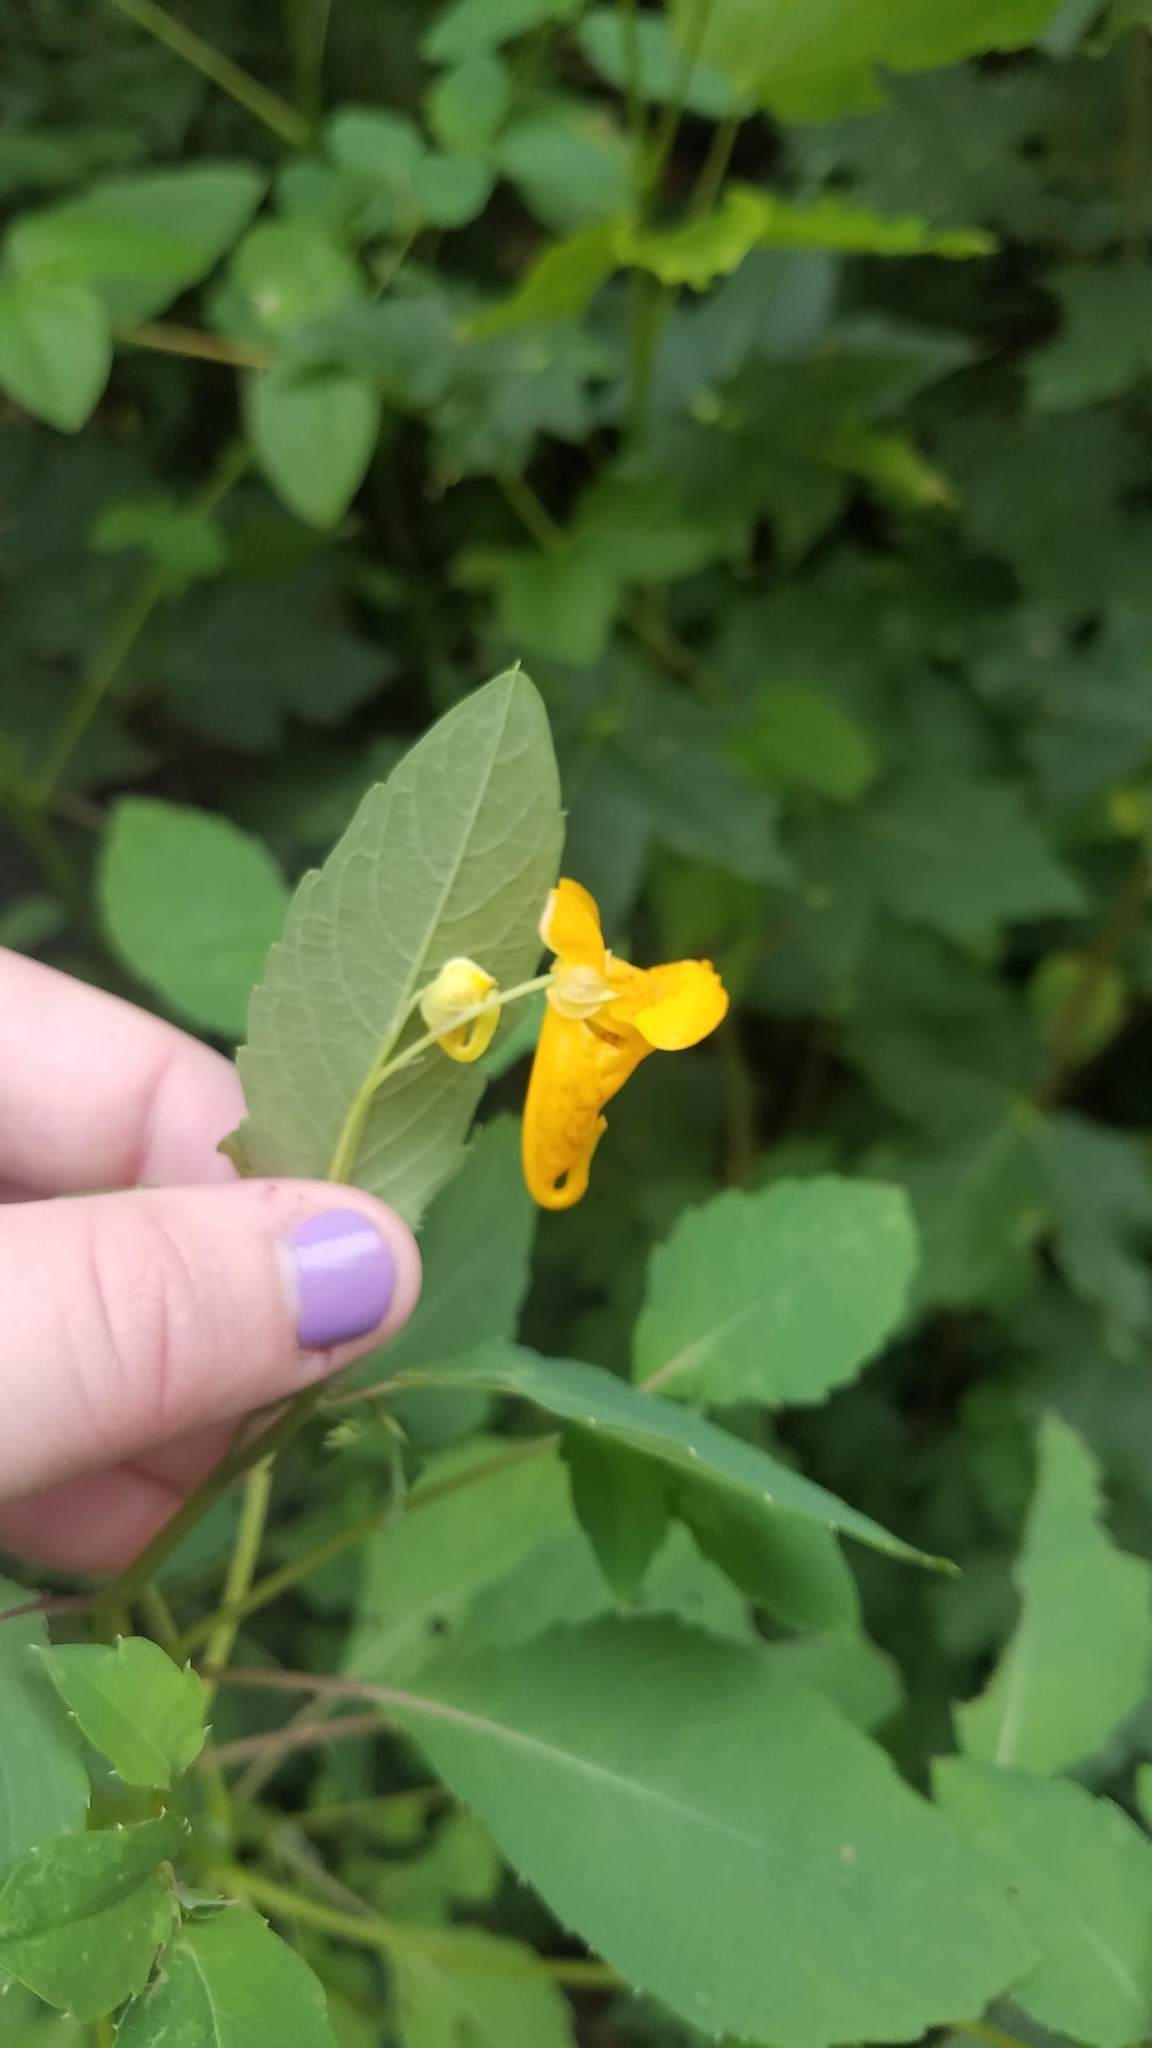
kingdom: Plantae
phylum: Tracheophyta
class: Magnoliopsida
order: Ericales
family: Balsaminaceae
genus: Impatiens
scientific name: Impatiens capensis
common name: Orange balsam
